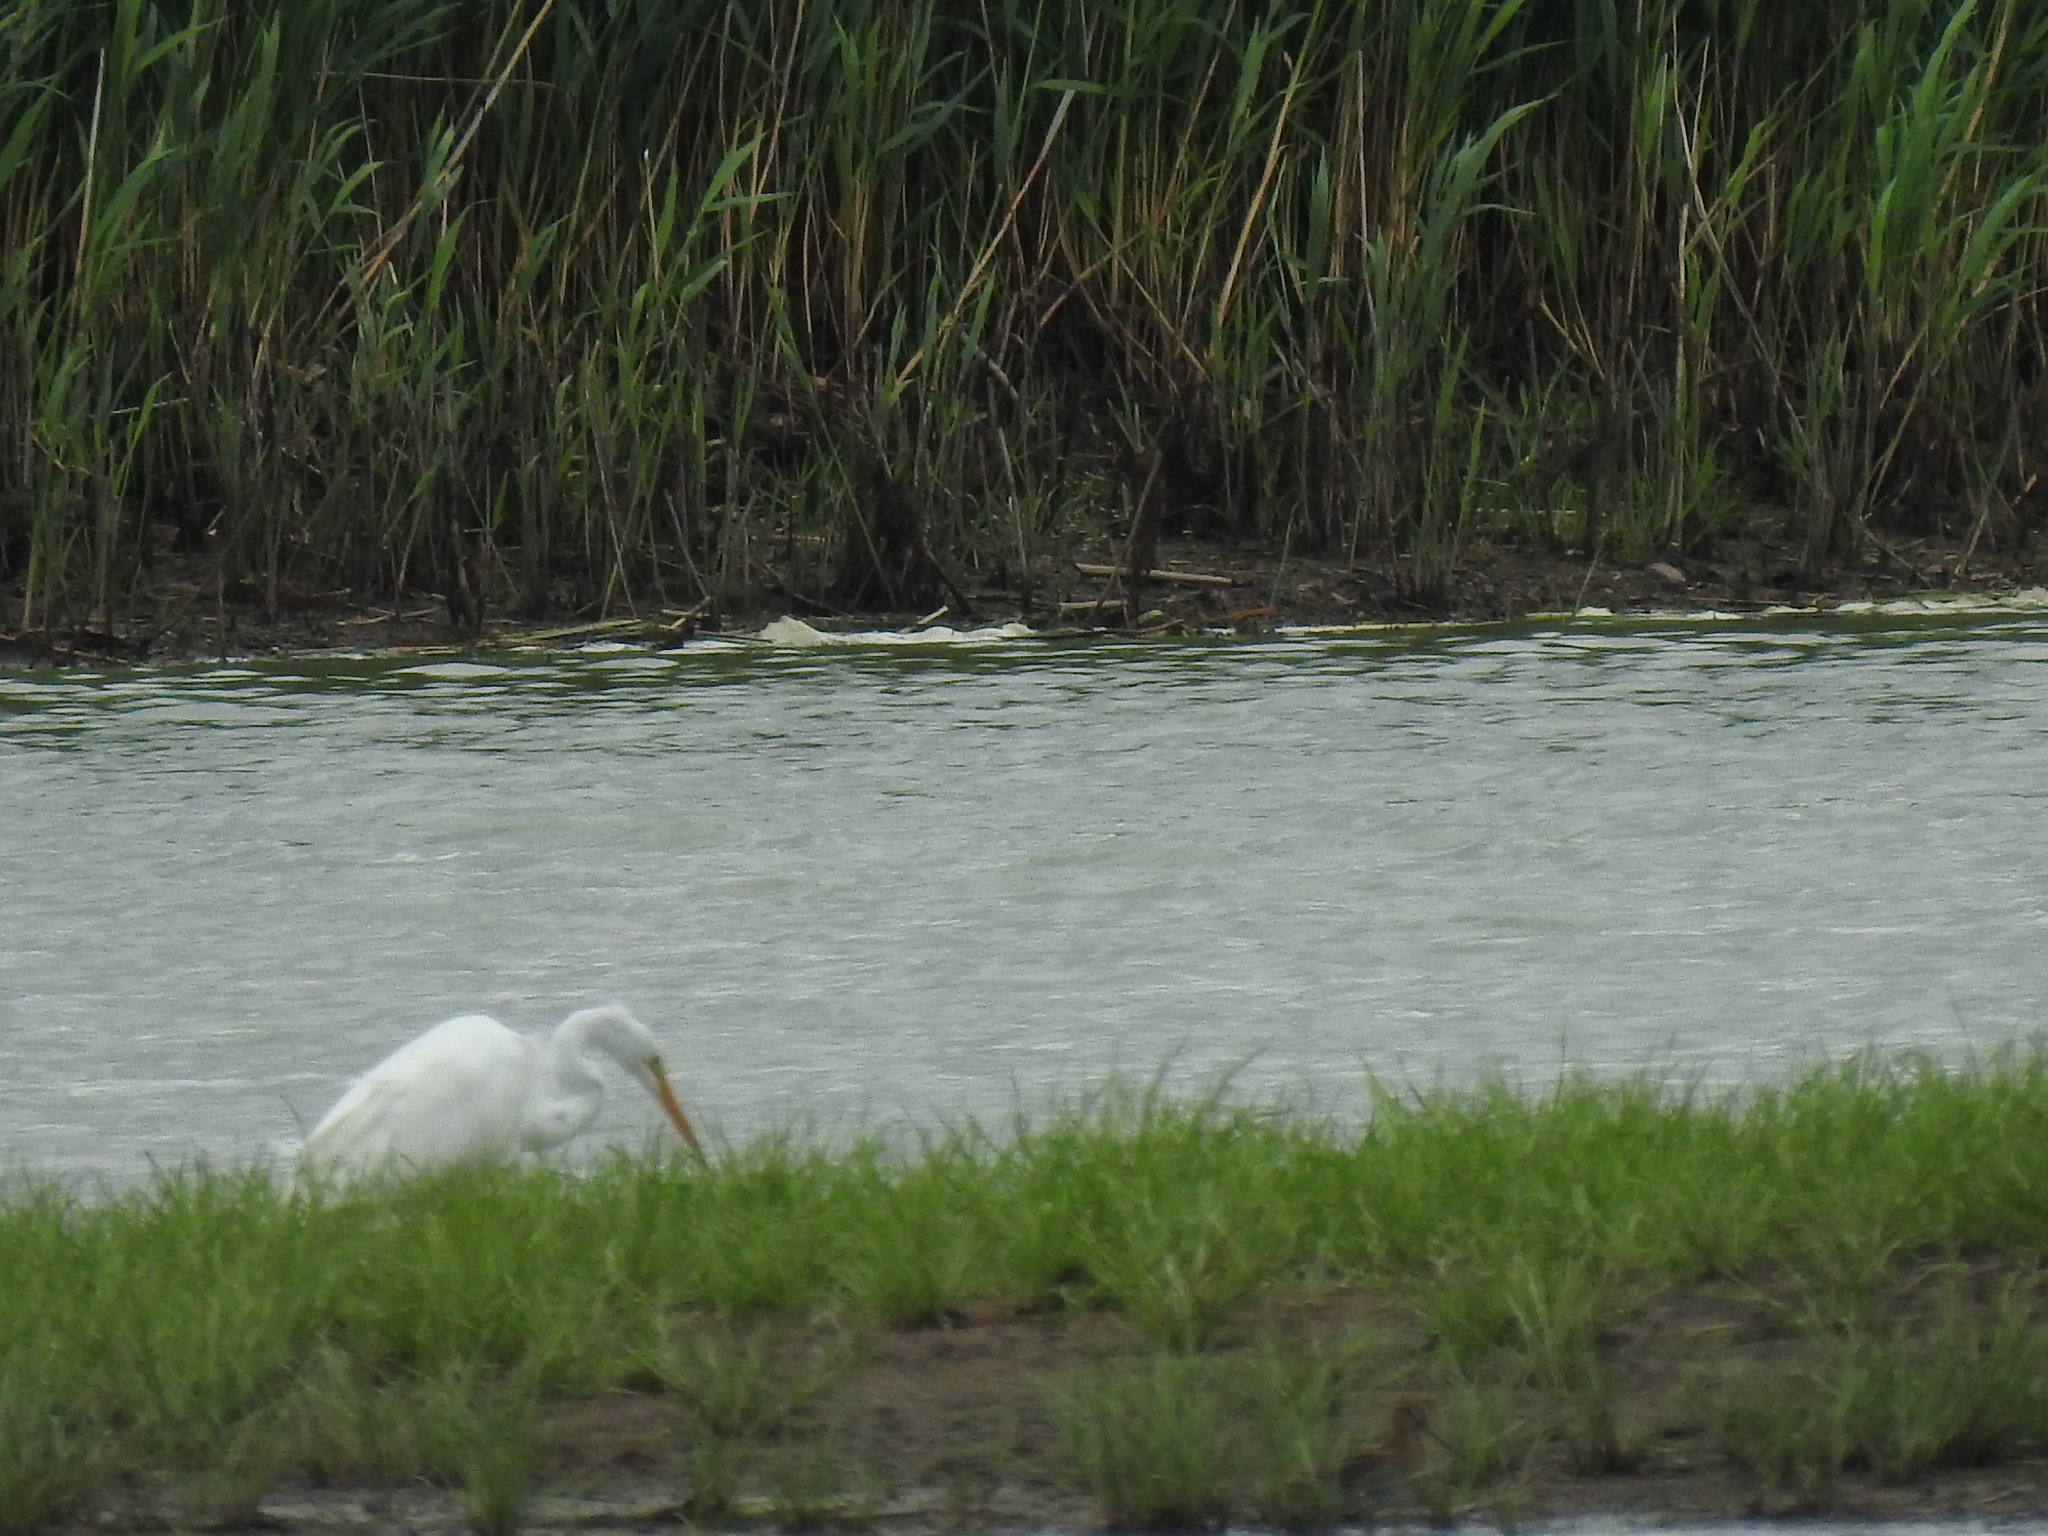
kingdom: Animalia
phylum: Chordata
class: Aves
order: Pelecaniformes
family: Ardeidae
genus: Ardea
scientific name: Ardea alba
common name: Great egret
